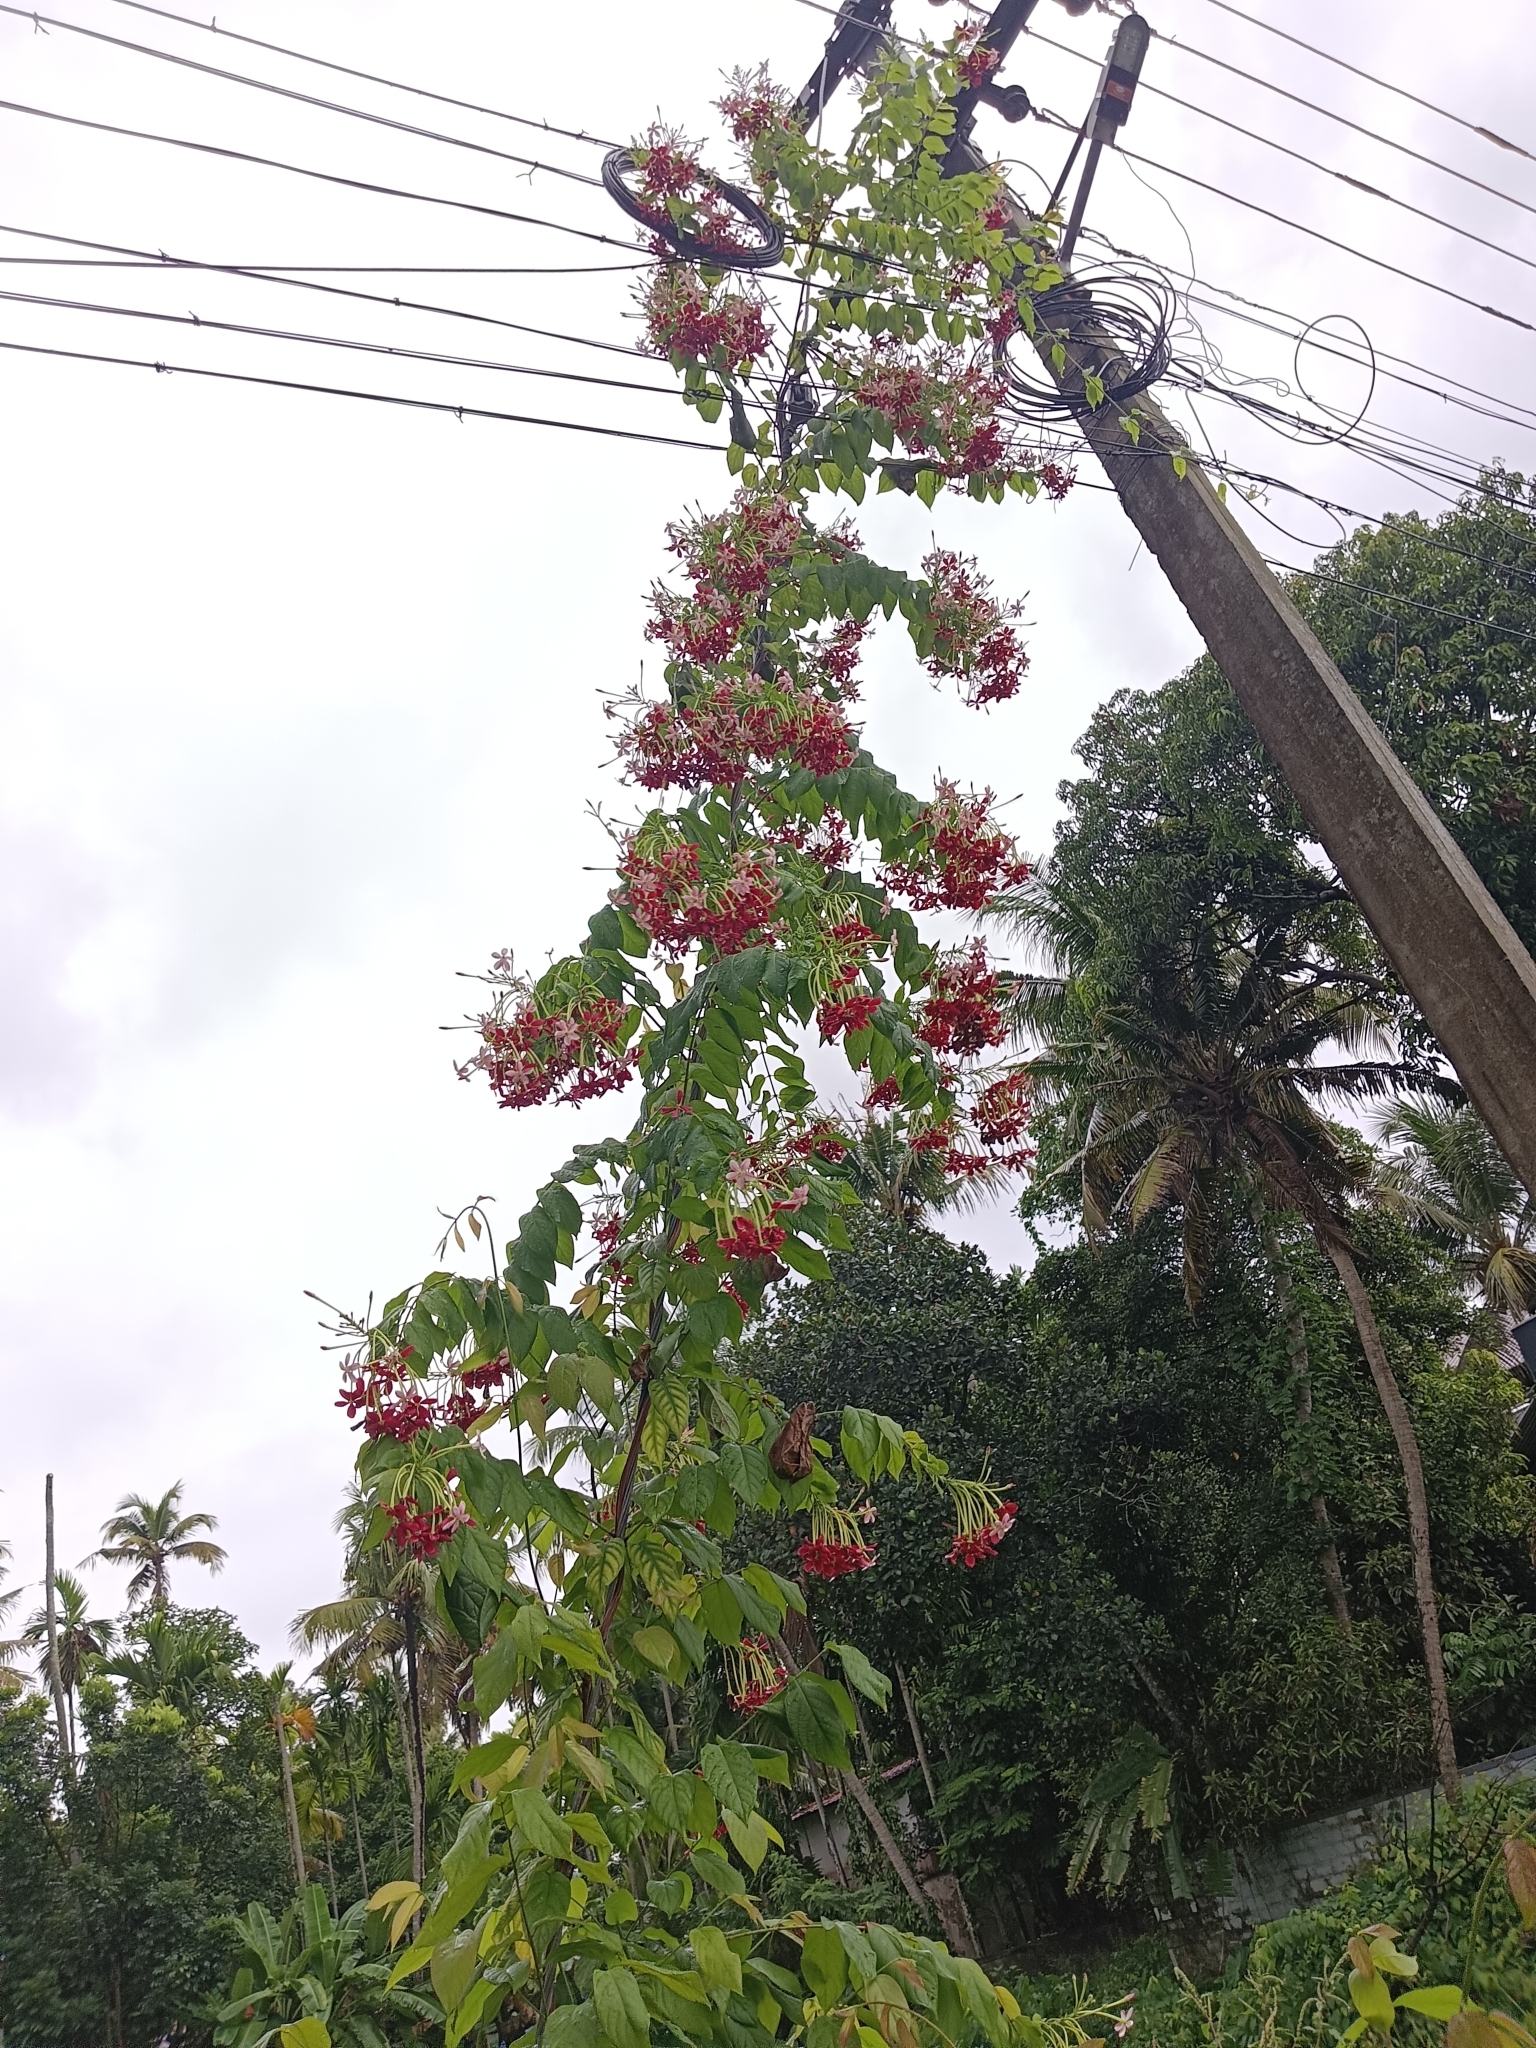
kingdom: Plantae
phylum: Tracheophyta
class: Magnoliopsida
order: Myrtales
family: Combretaceae
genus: Combretum
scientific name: Combretum indicum
